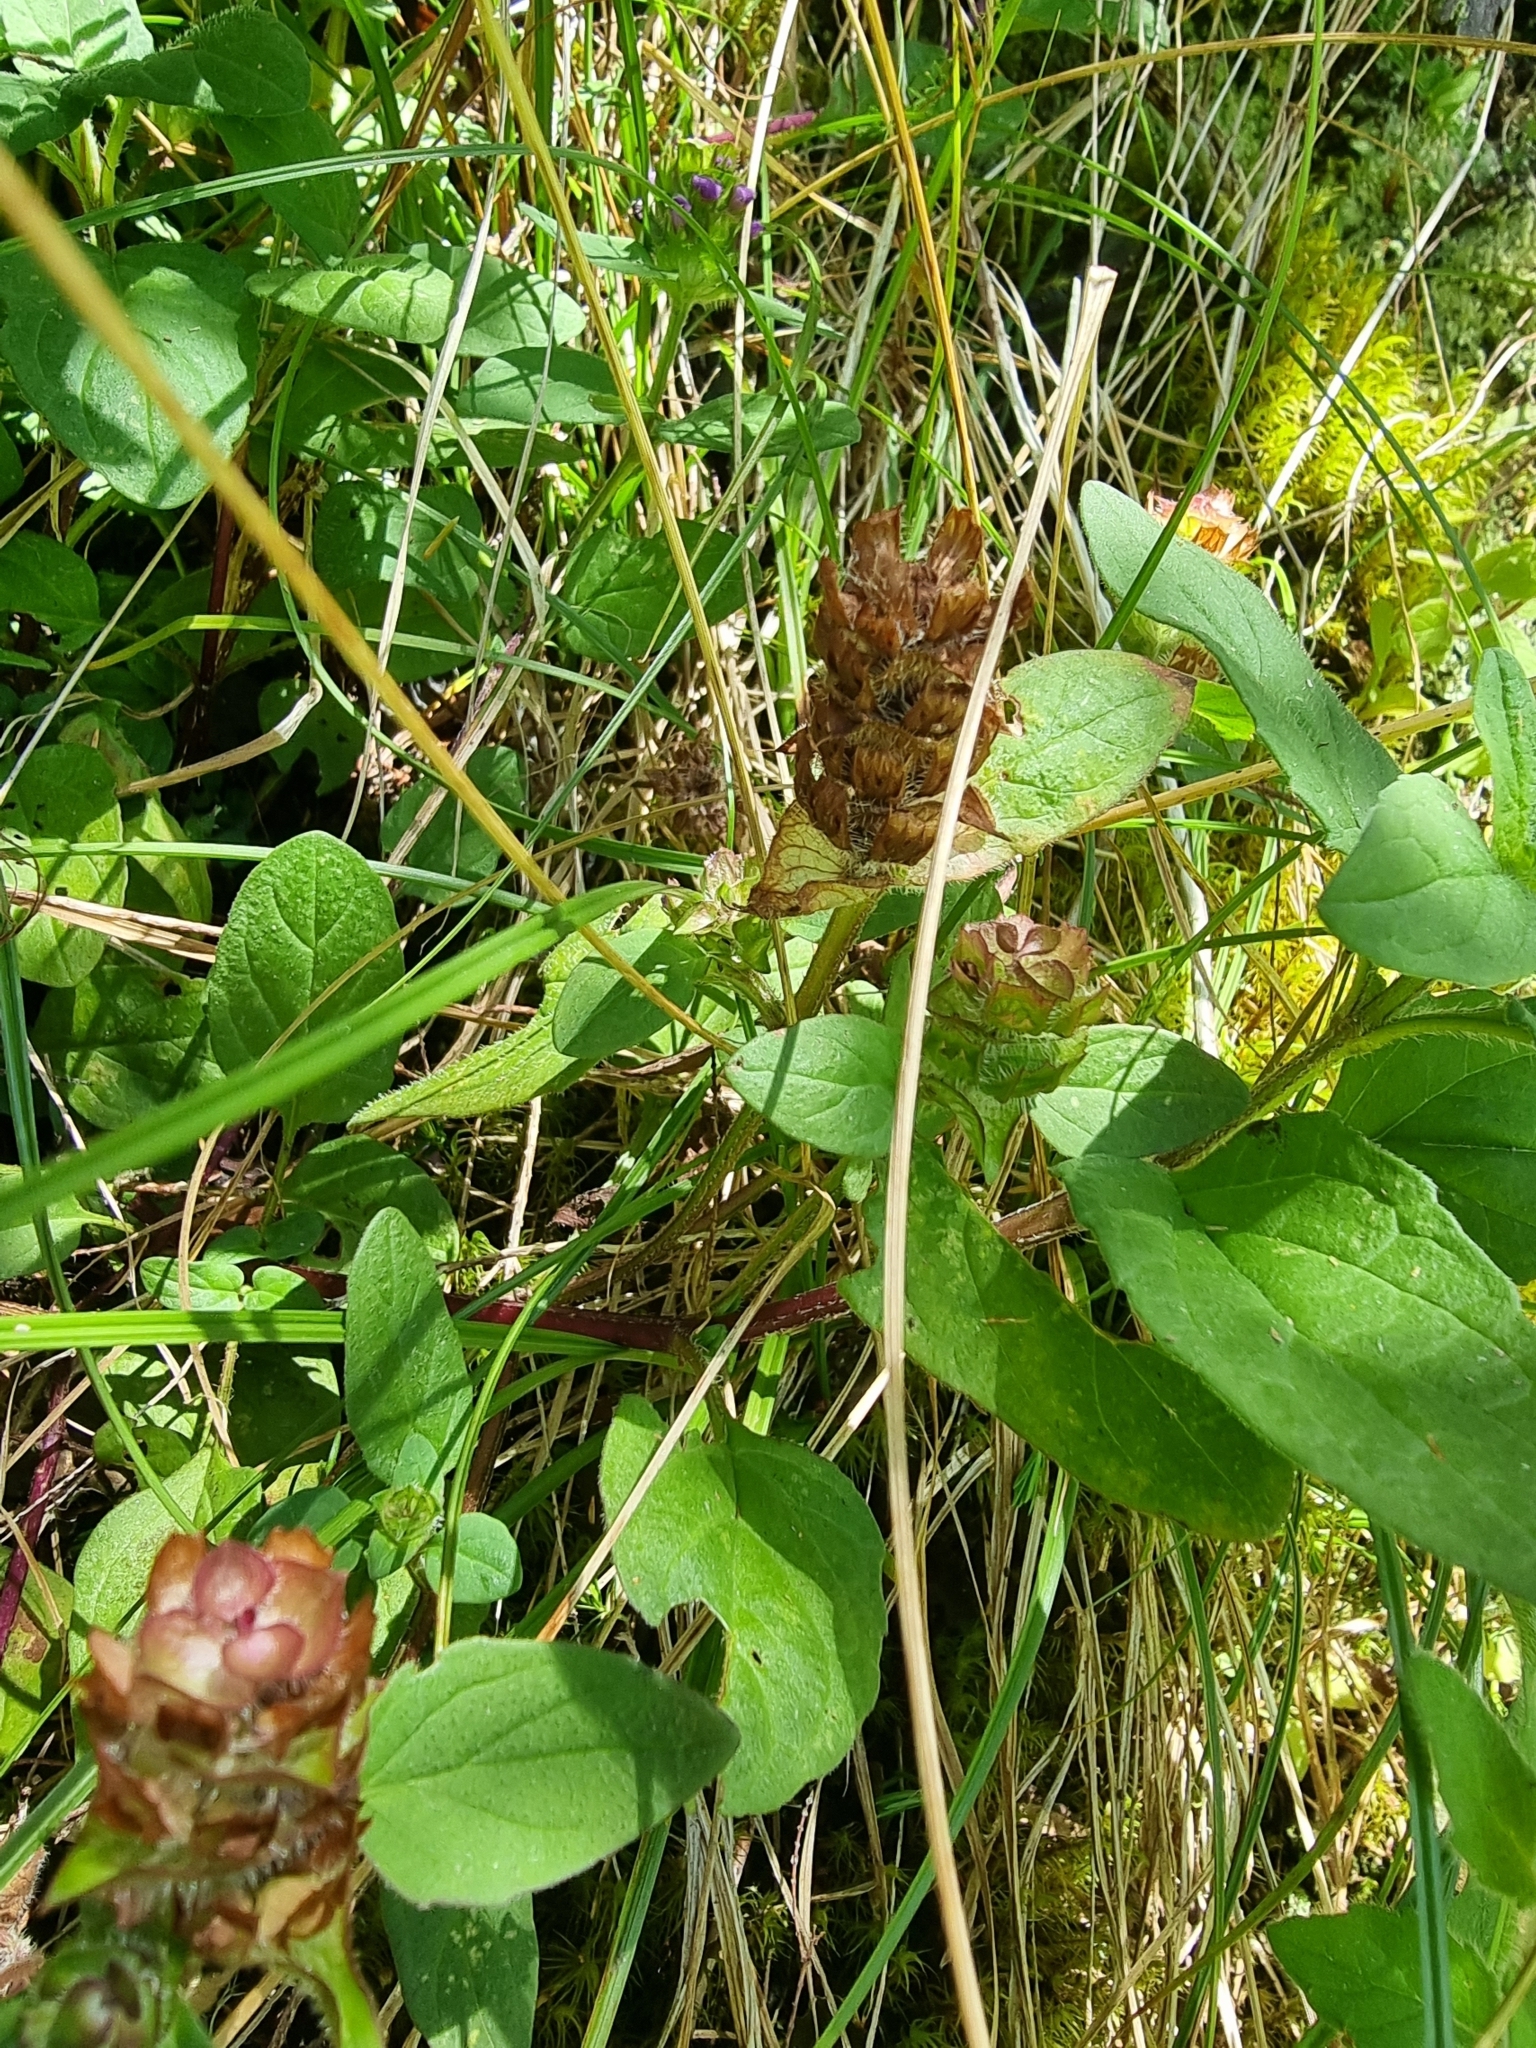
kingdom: Plantae
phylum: Tracheophyta
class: Magnoliopsida
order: Lamiales
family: Lamiaceae
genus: Prunella
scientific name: Prunella vulgaris
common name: Heal-all
